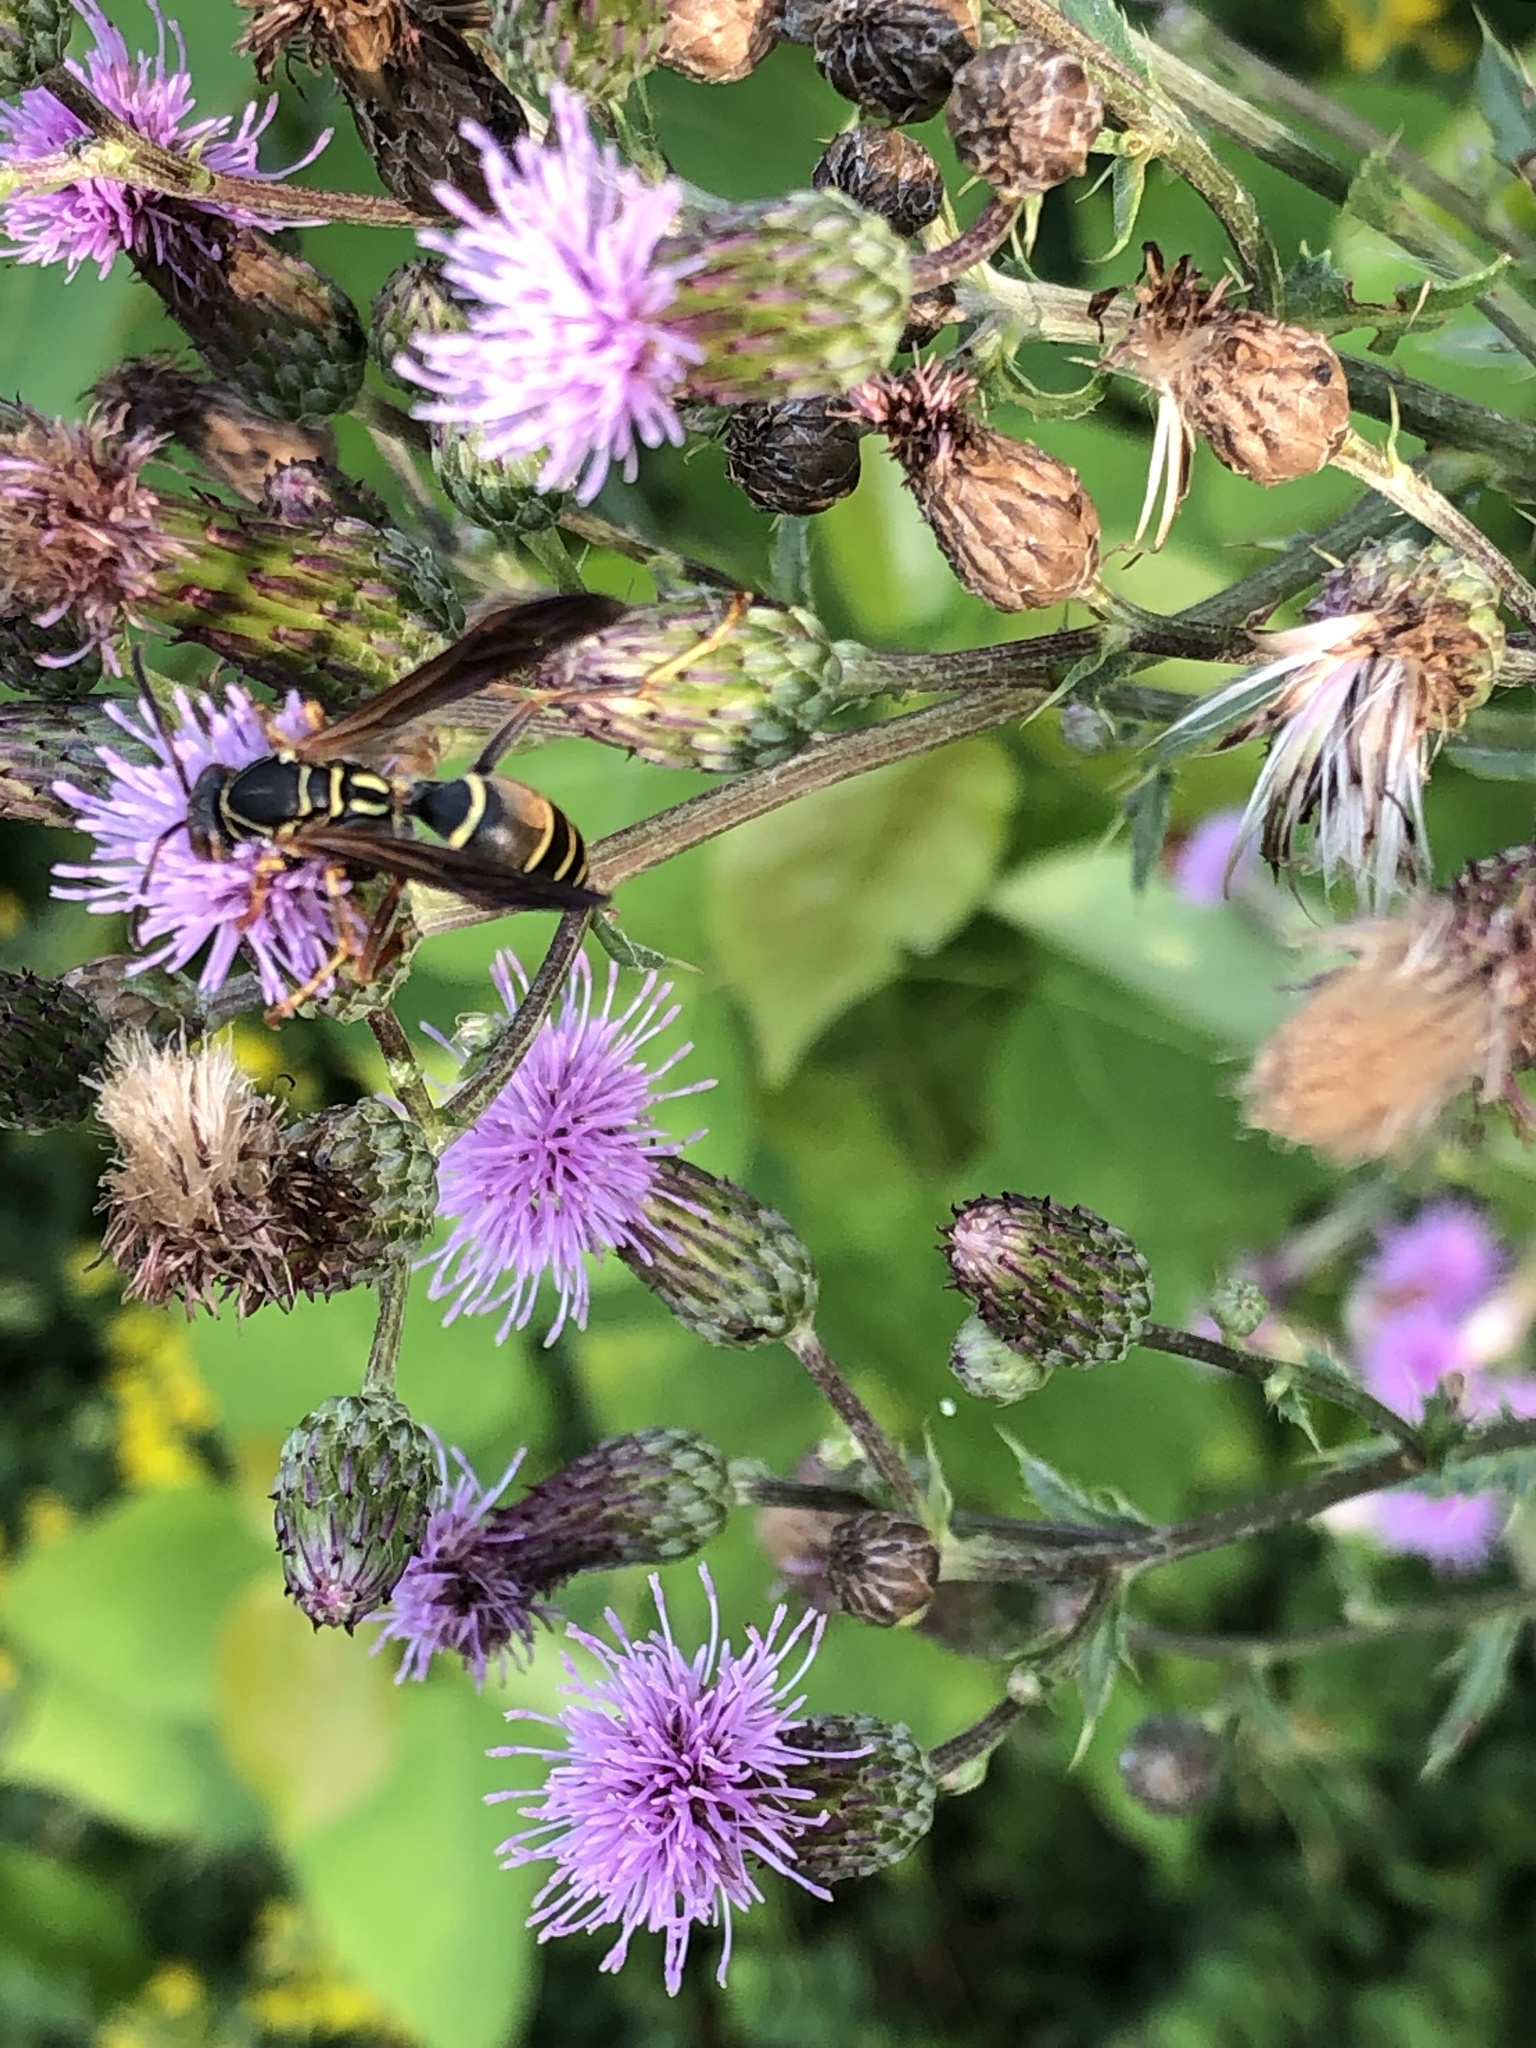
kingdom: Animalia
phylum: Arthropoda
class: Insecta
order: Hymenoptera
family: Eumenidae
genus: Polistes
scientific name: Polistes fuscatus
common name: Dark paper wasp
